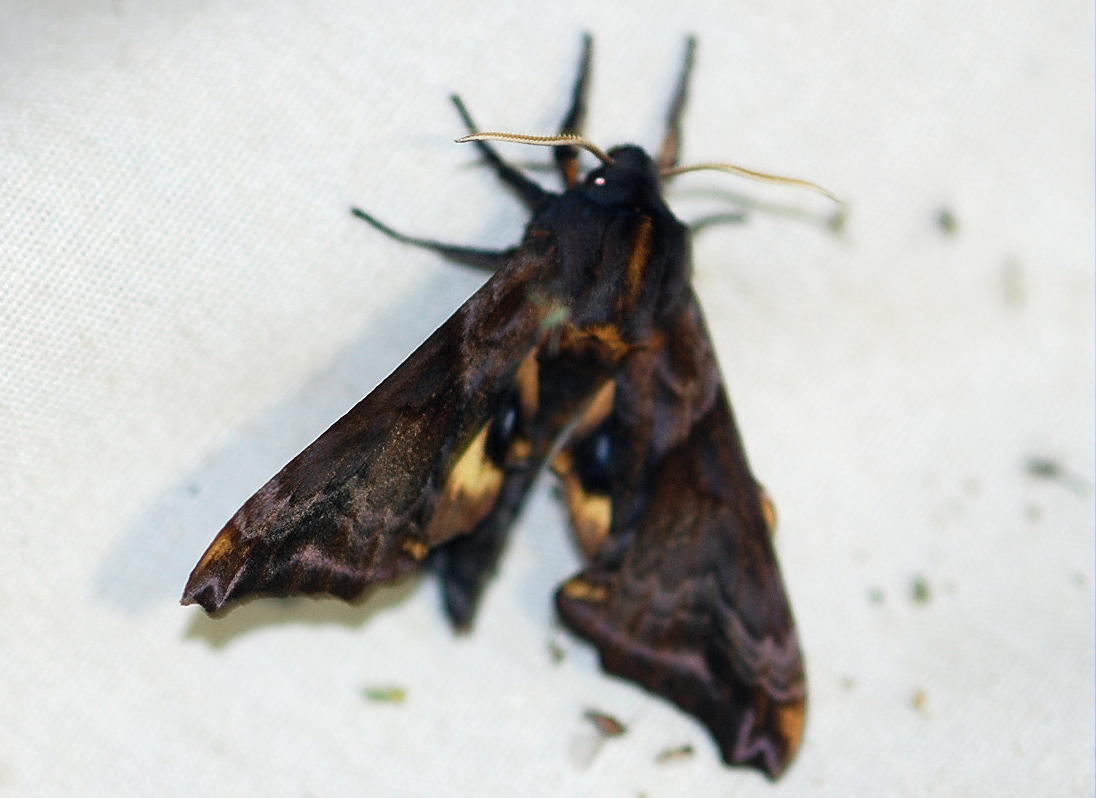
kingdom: Animalia
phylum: Arthropoda
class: Insecta
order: Lepidoptera
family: Sphingidae
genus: Paonias
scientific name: Paonias myops
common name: Small-eyed sphinx
